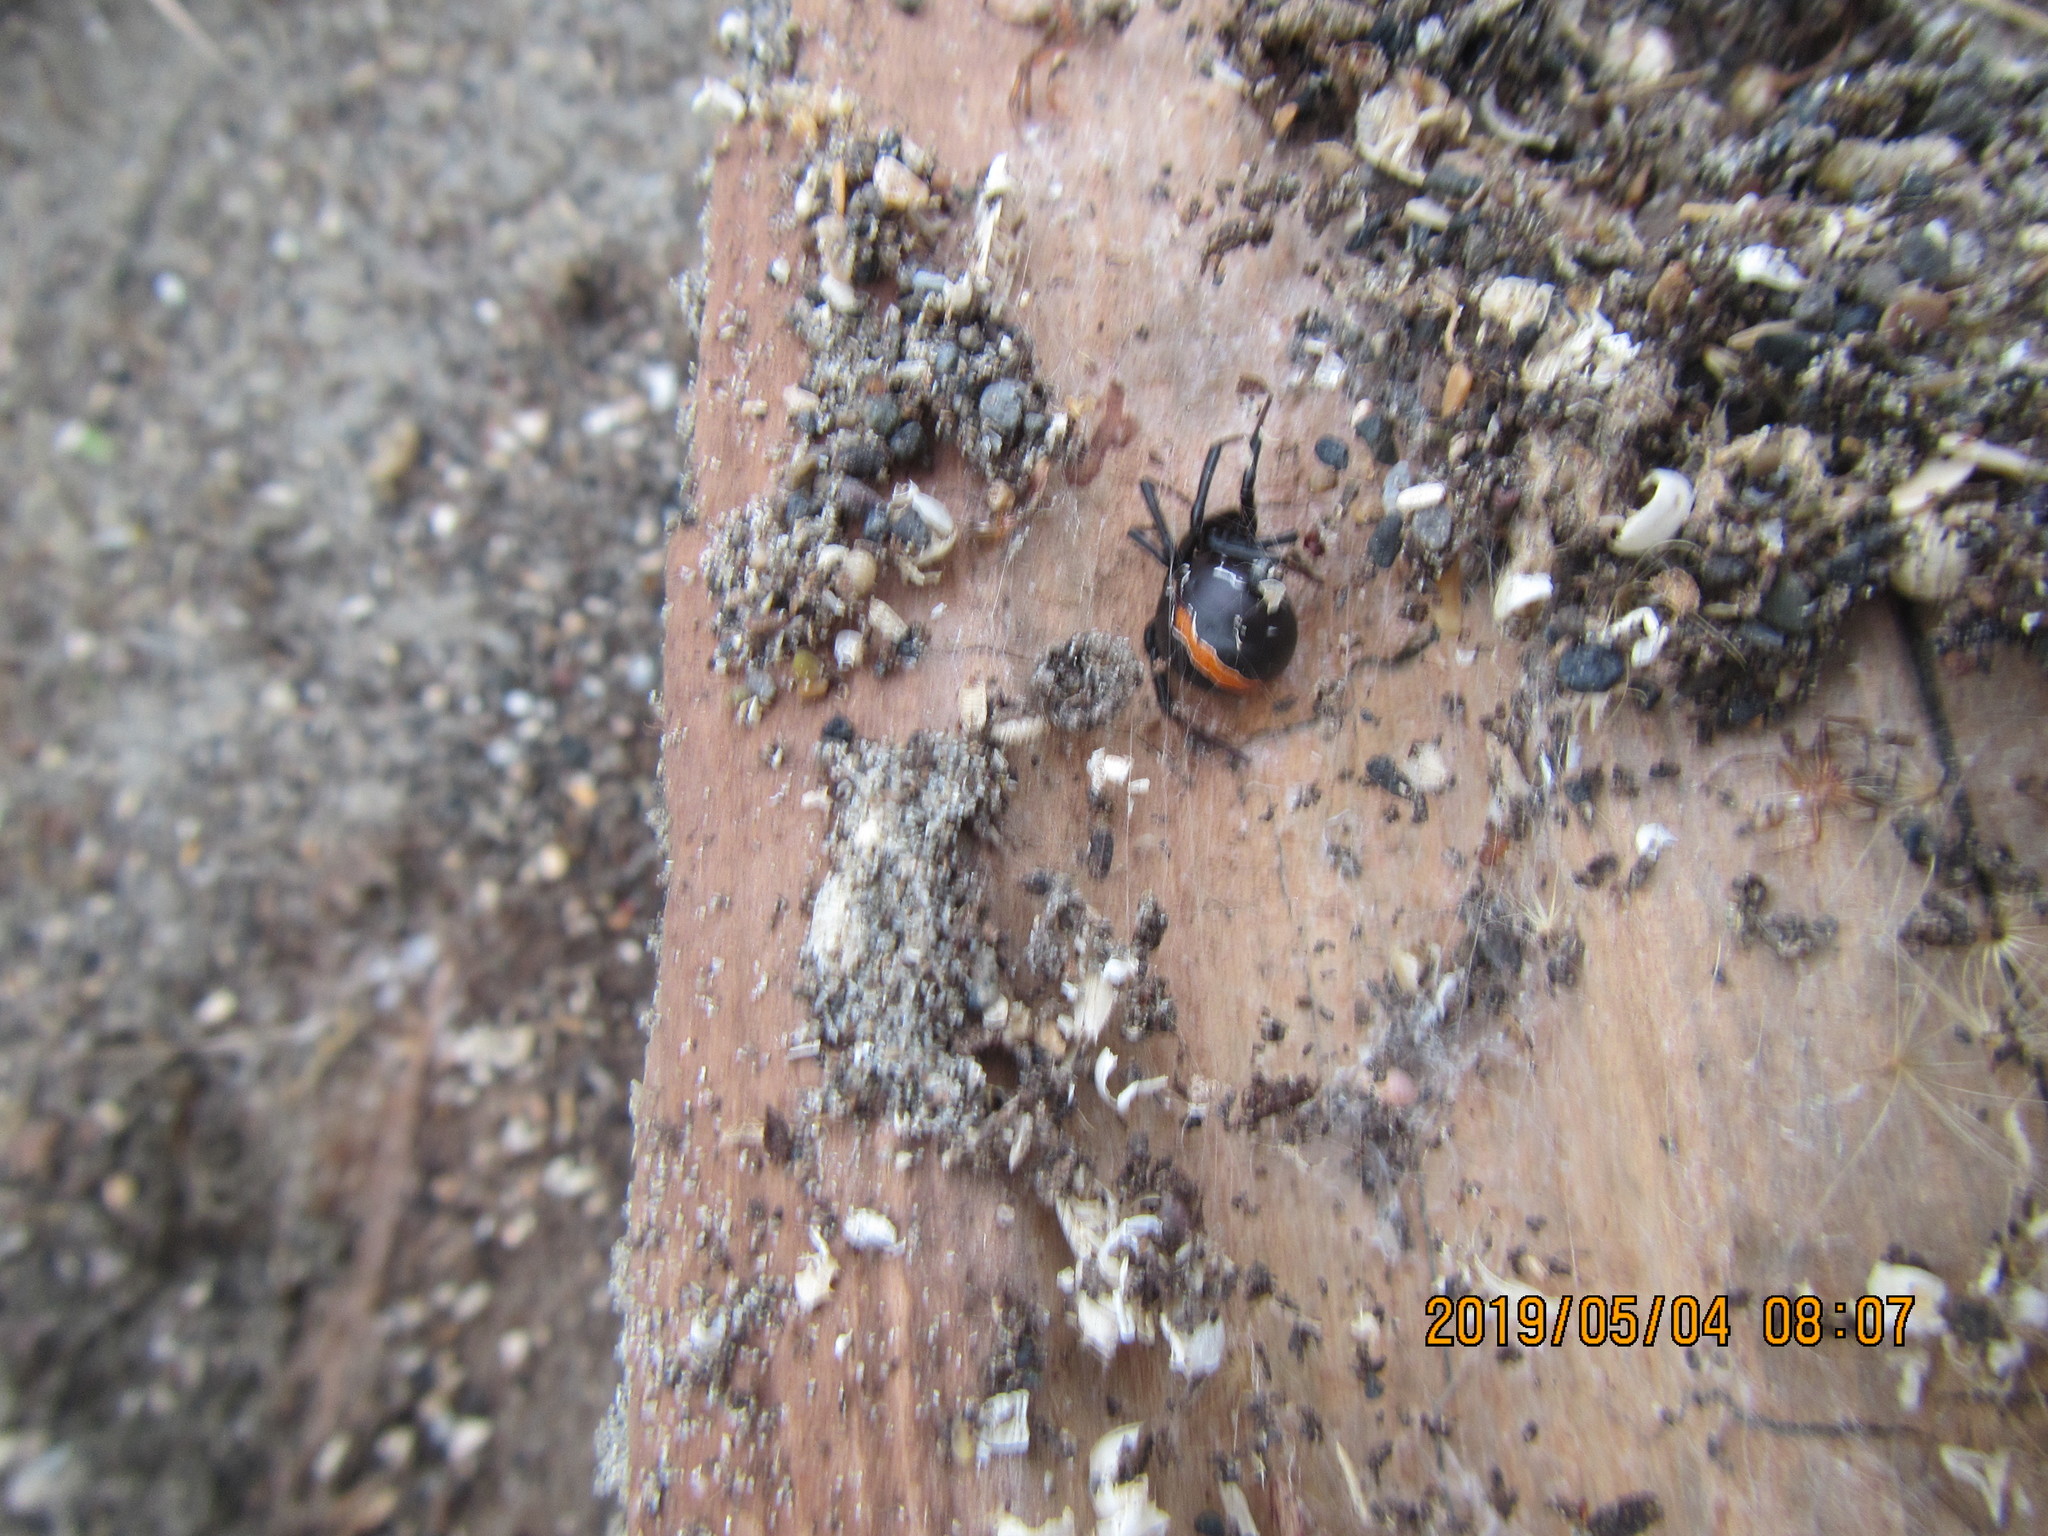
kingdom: Animalia
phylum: Arthropoda
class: Arachnida
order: Araneae
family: Theridiidae
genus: Latrodectus
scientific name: Latrodectus katipo
